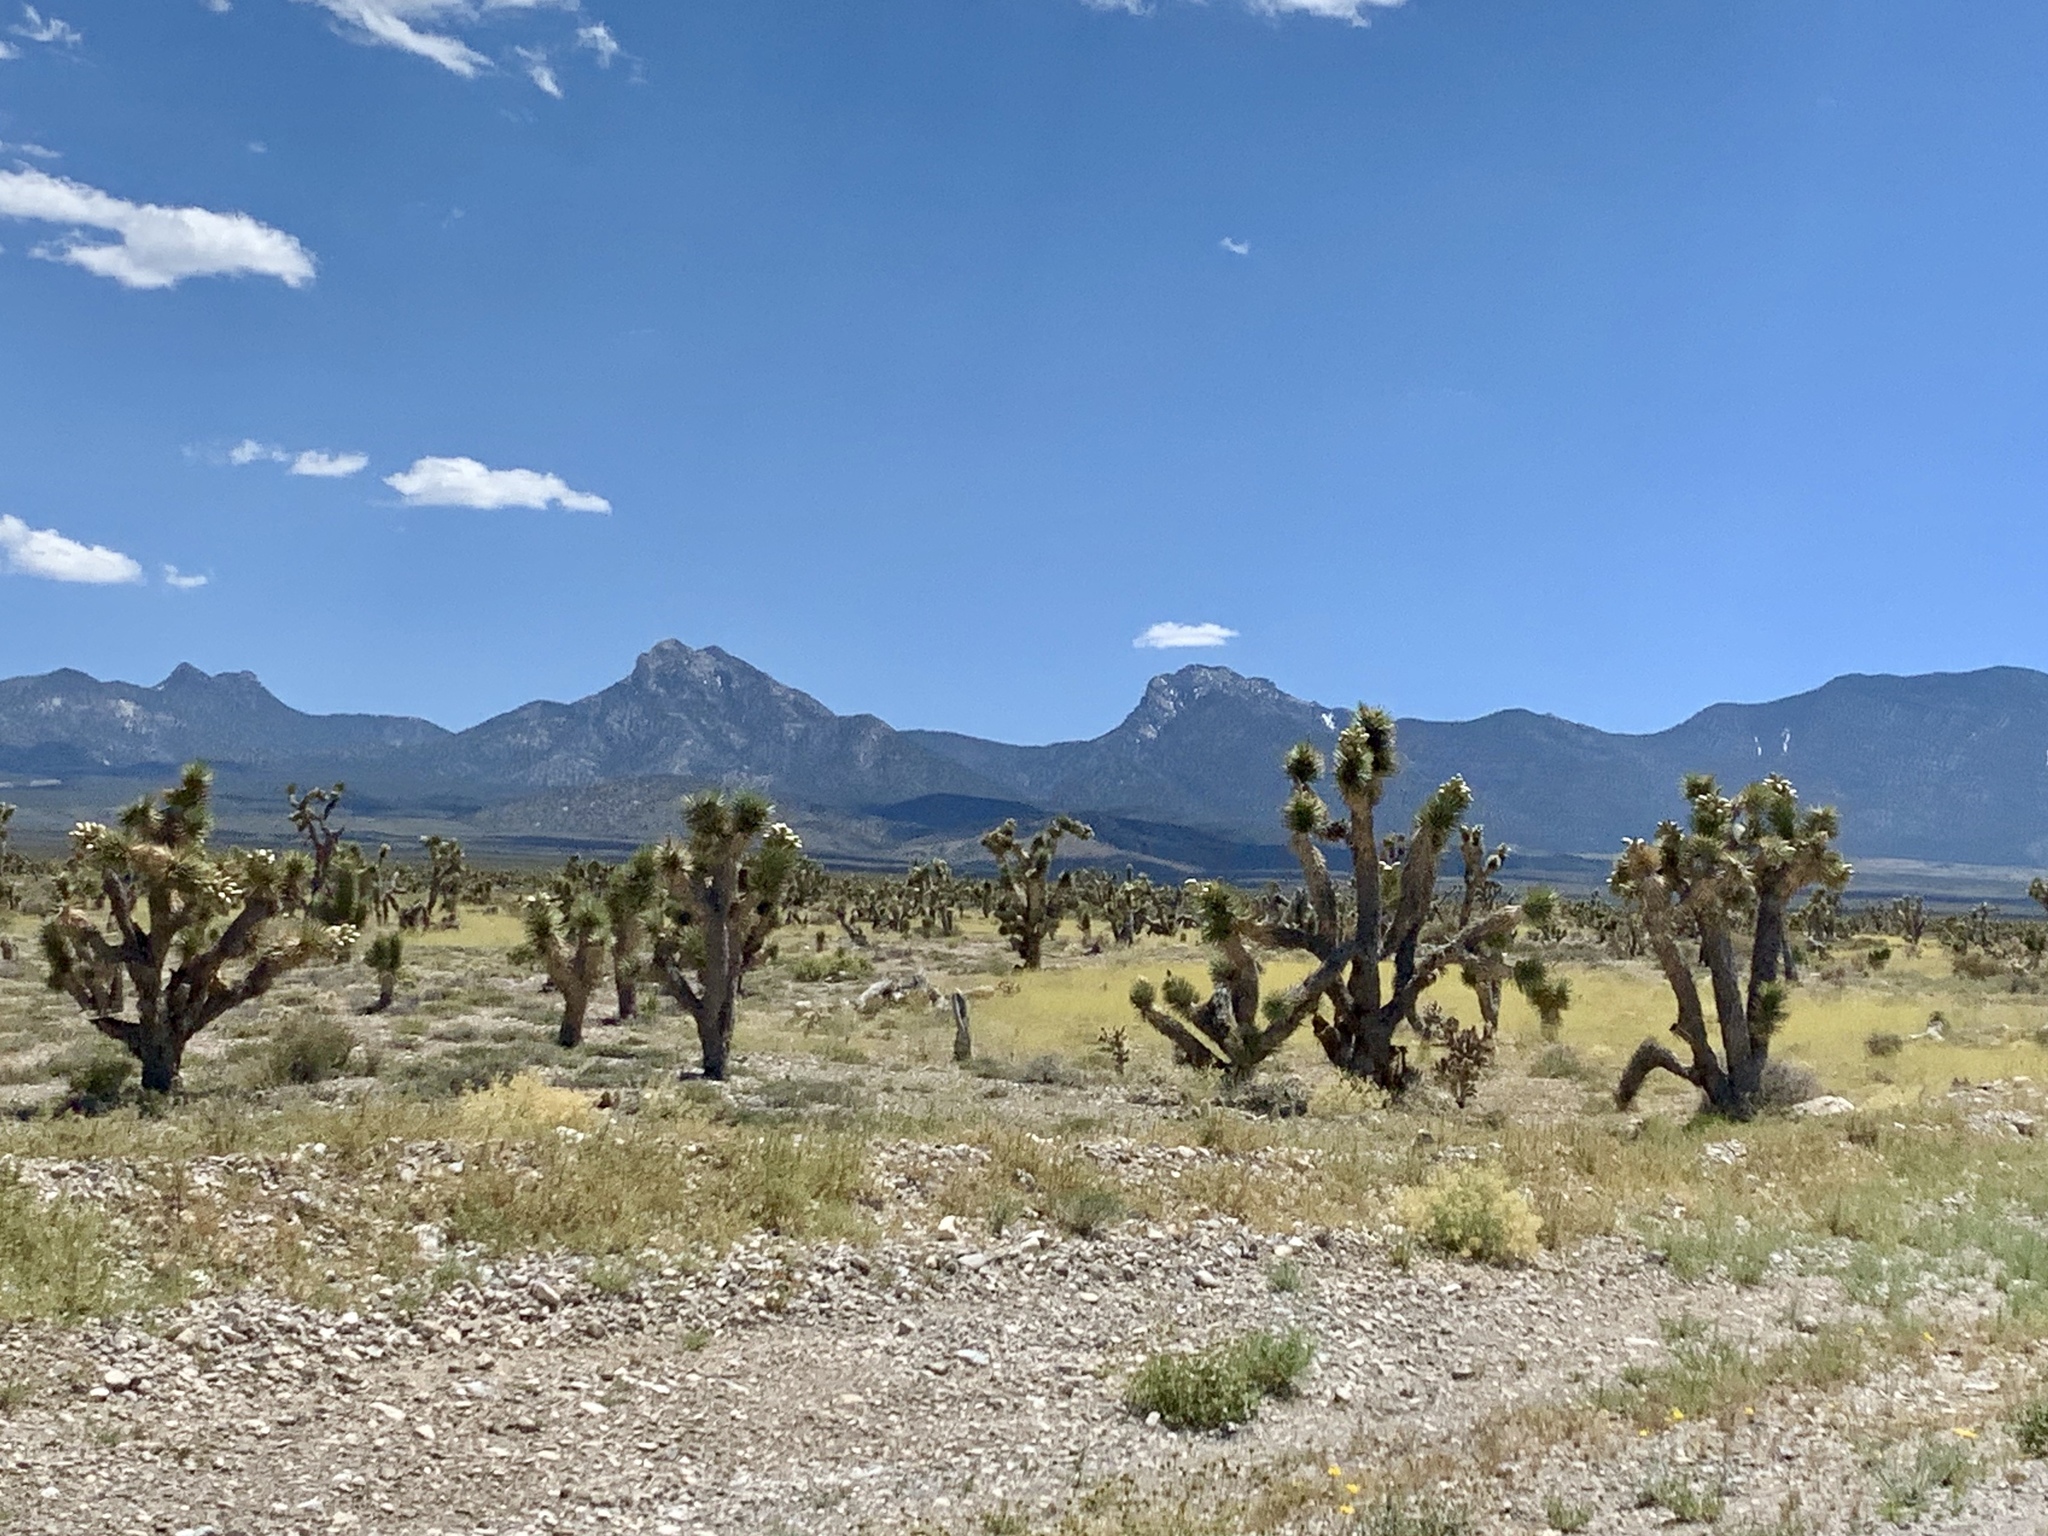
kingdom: Plantae
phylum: Tracheophyta
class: Liliopsida
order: Asparagales
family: Asparagaceae
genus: Yucca
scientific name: Yucca brevifolia
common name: Joshua tree
